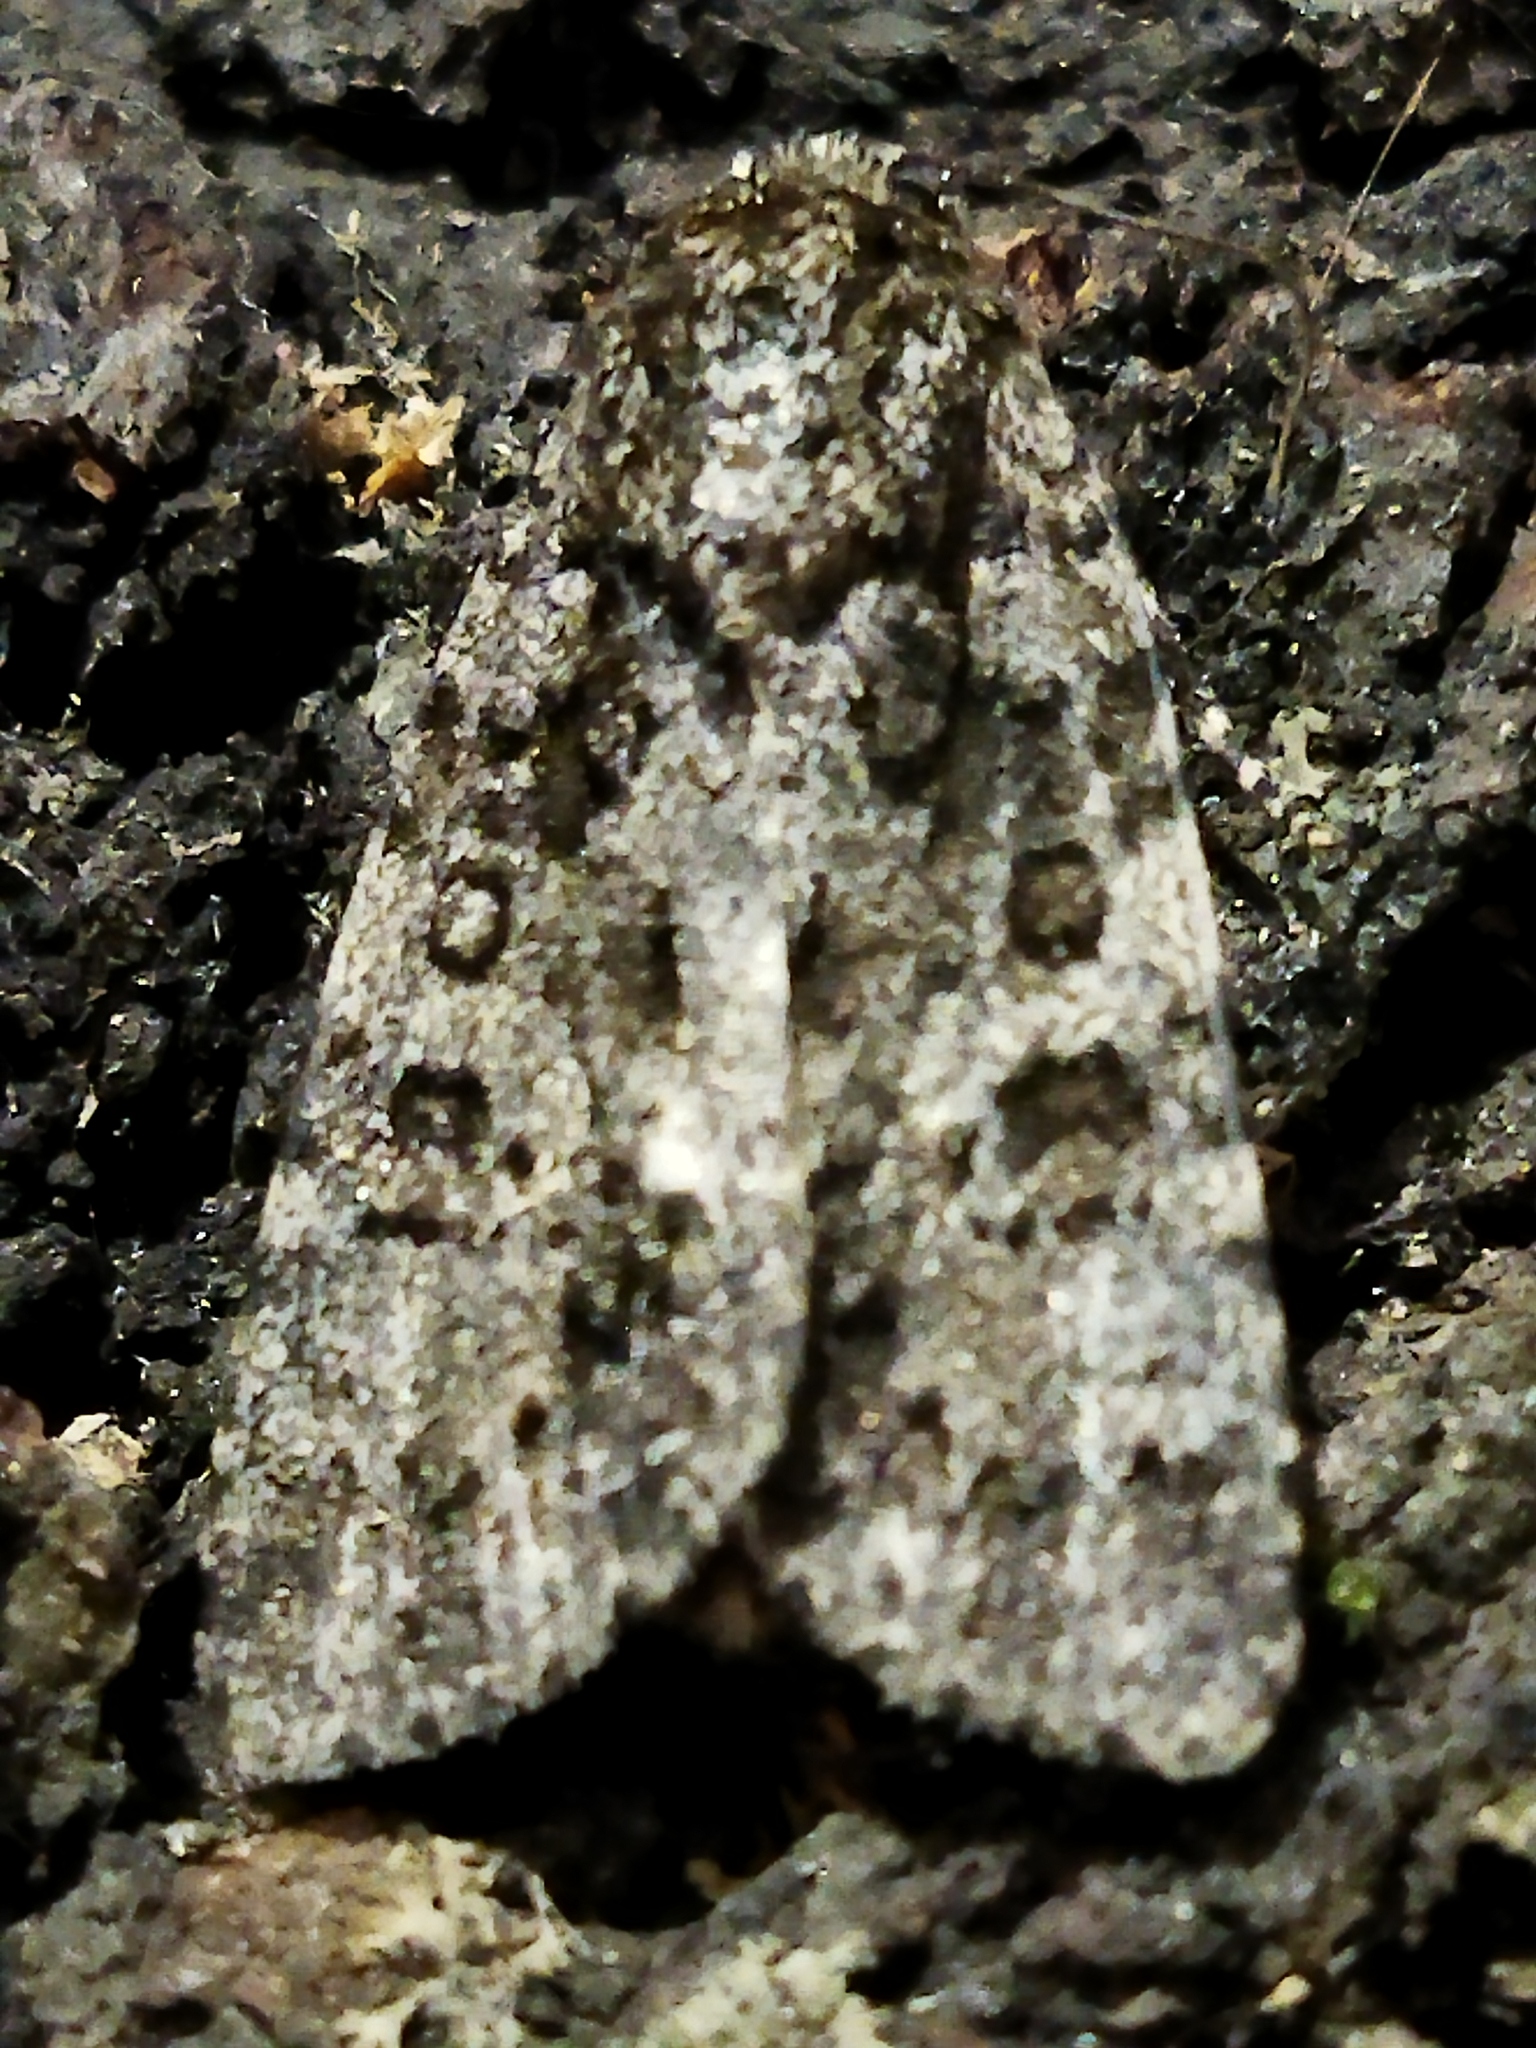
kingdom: Animalia
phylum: Arthropoda
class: Insecta
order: Lepidoptera
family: Noctuidae
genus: Acronicta
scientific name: Acronicta rumicis
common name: Knot grass
